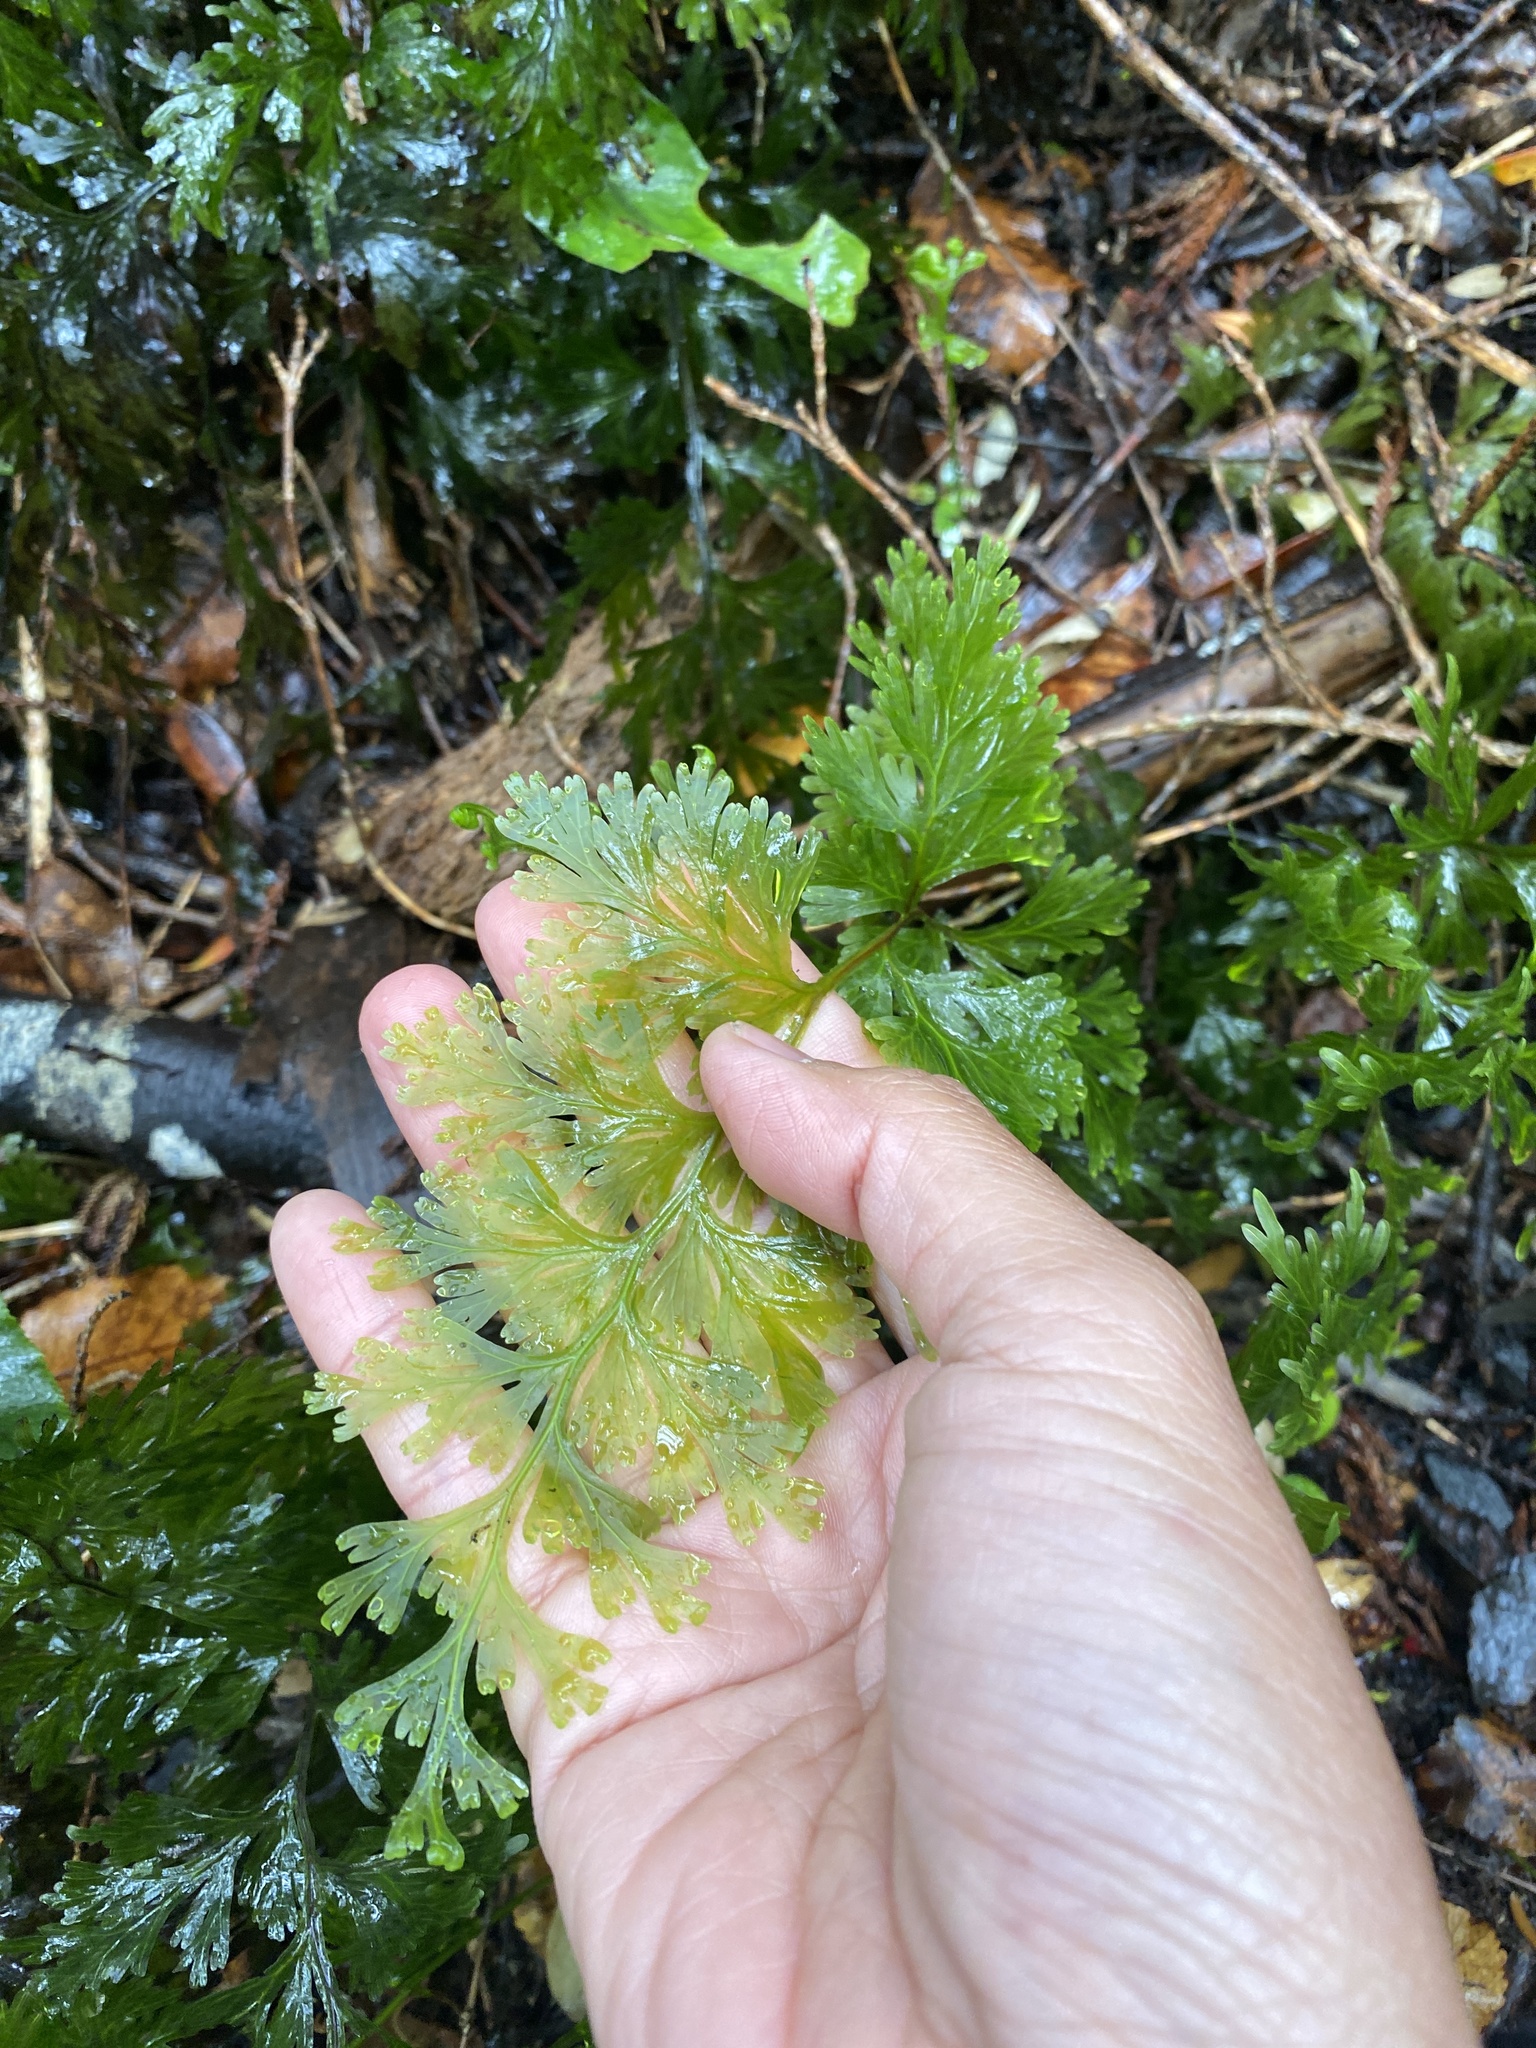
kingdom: Plantae
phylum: Tracheophyta
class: Polypodiopsida
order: Hymenophyllales
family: Hymenophyllaceae
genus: Hymenophyllum
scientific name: Hymenophyllum dilatatum
